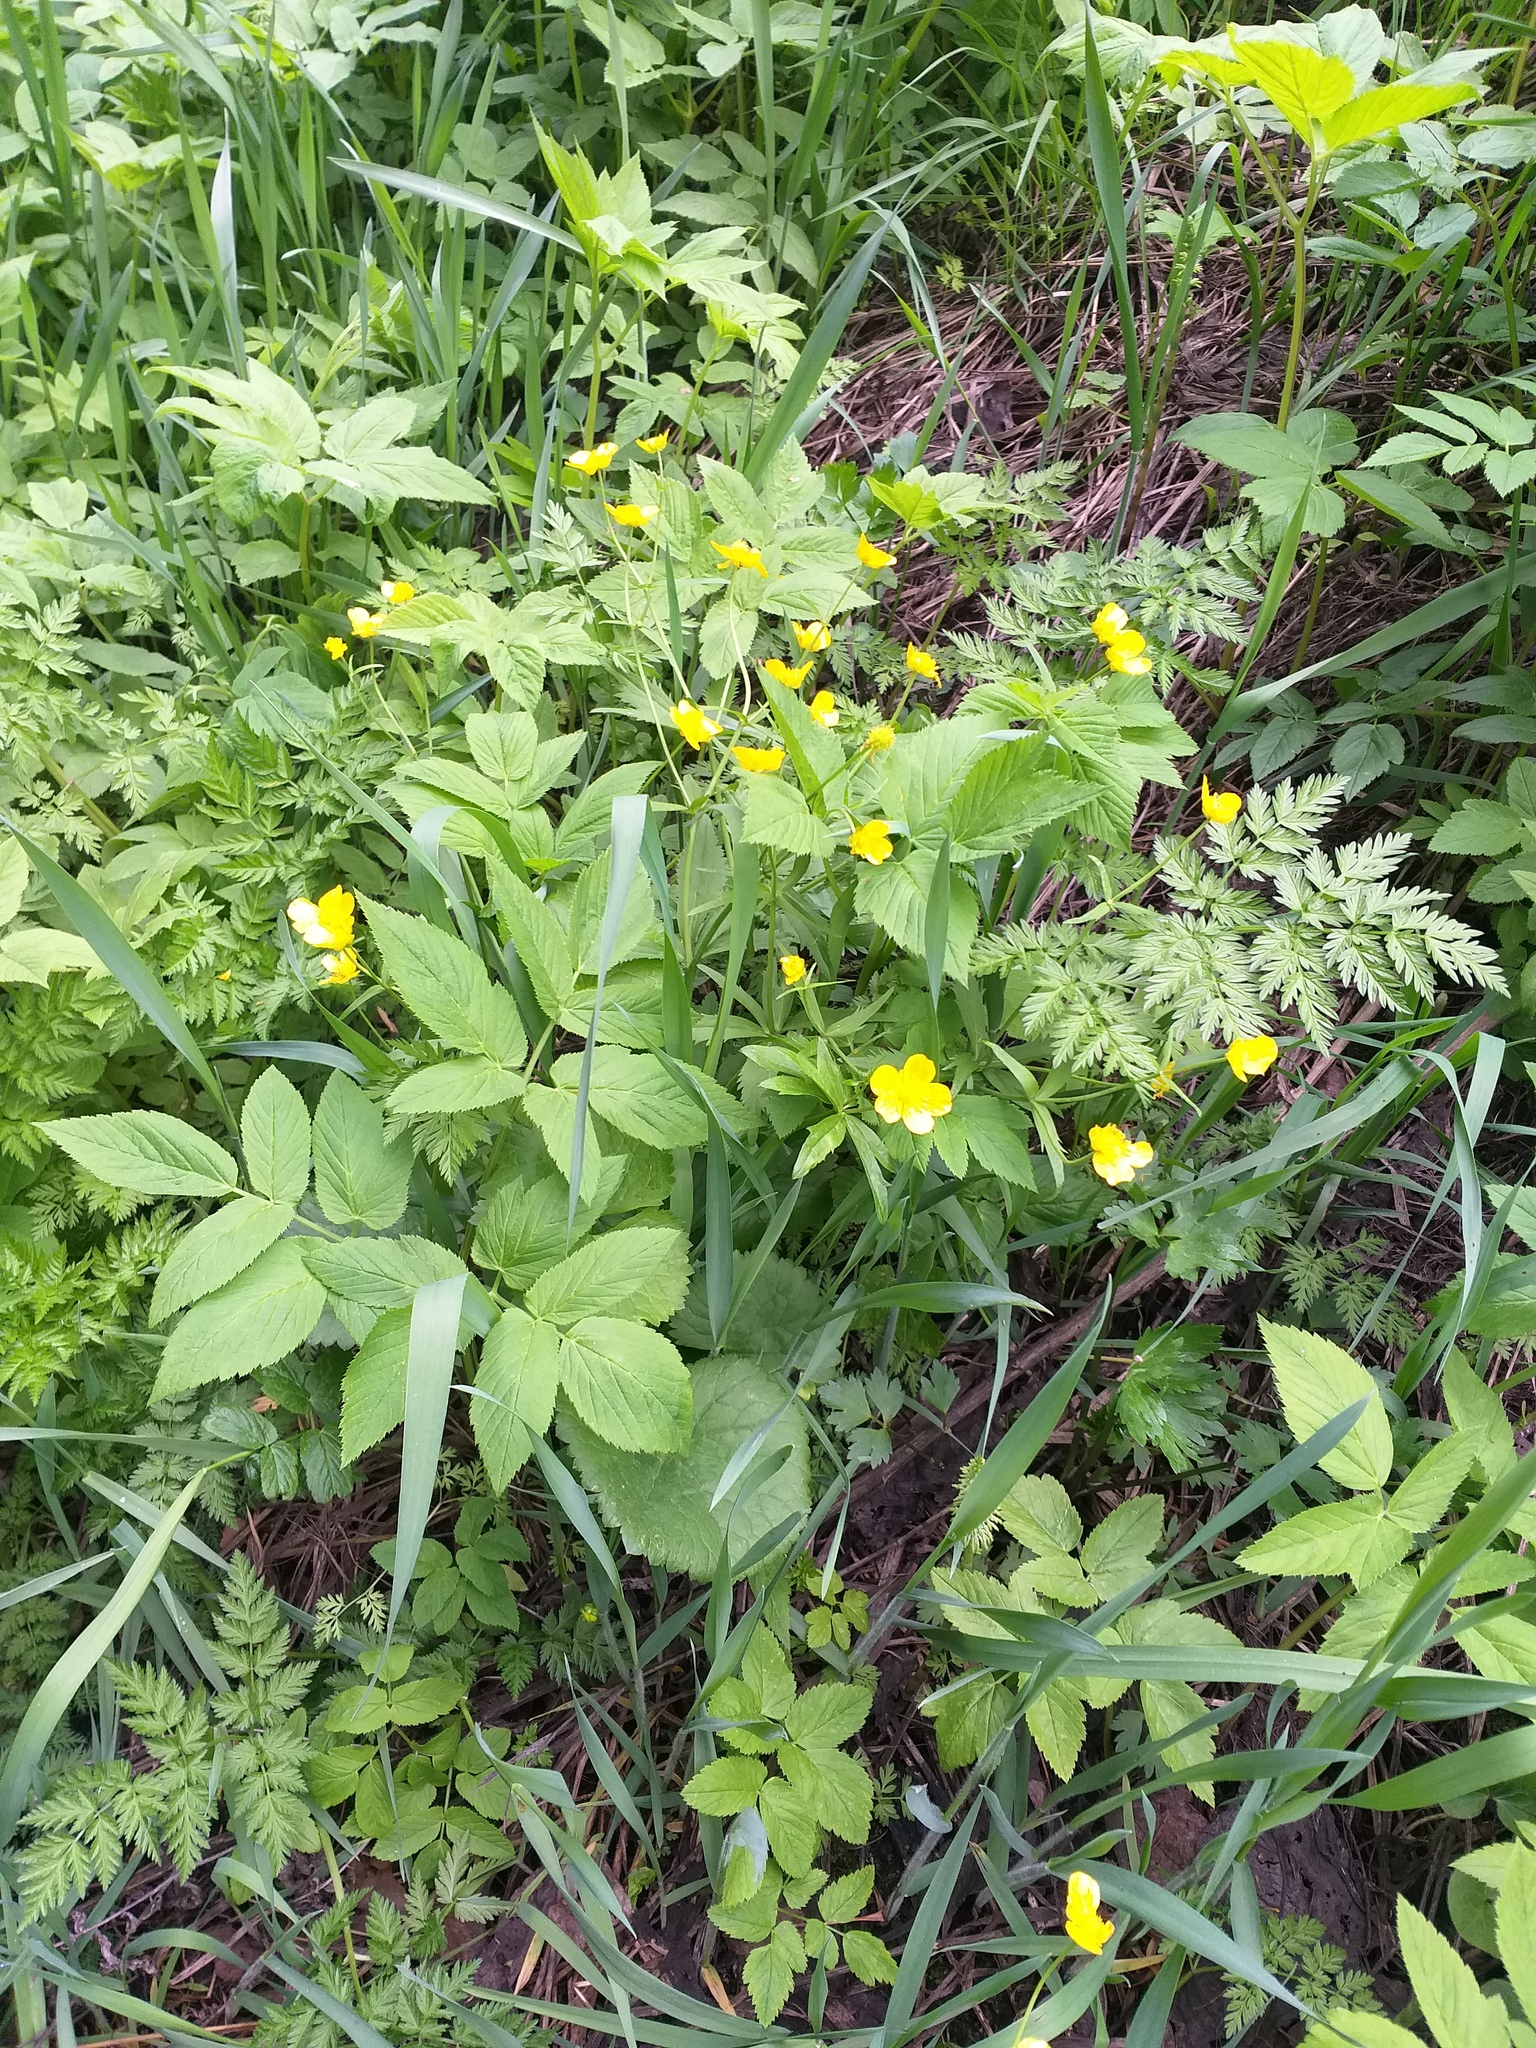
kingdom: Plantae
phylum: Tracheophyta
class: Magnoliopsida
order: Ranunculales
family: Ranunculaceae
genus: Ranunculus
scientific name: Ranunculus cassubicus
